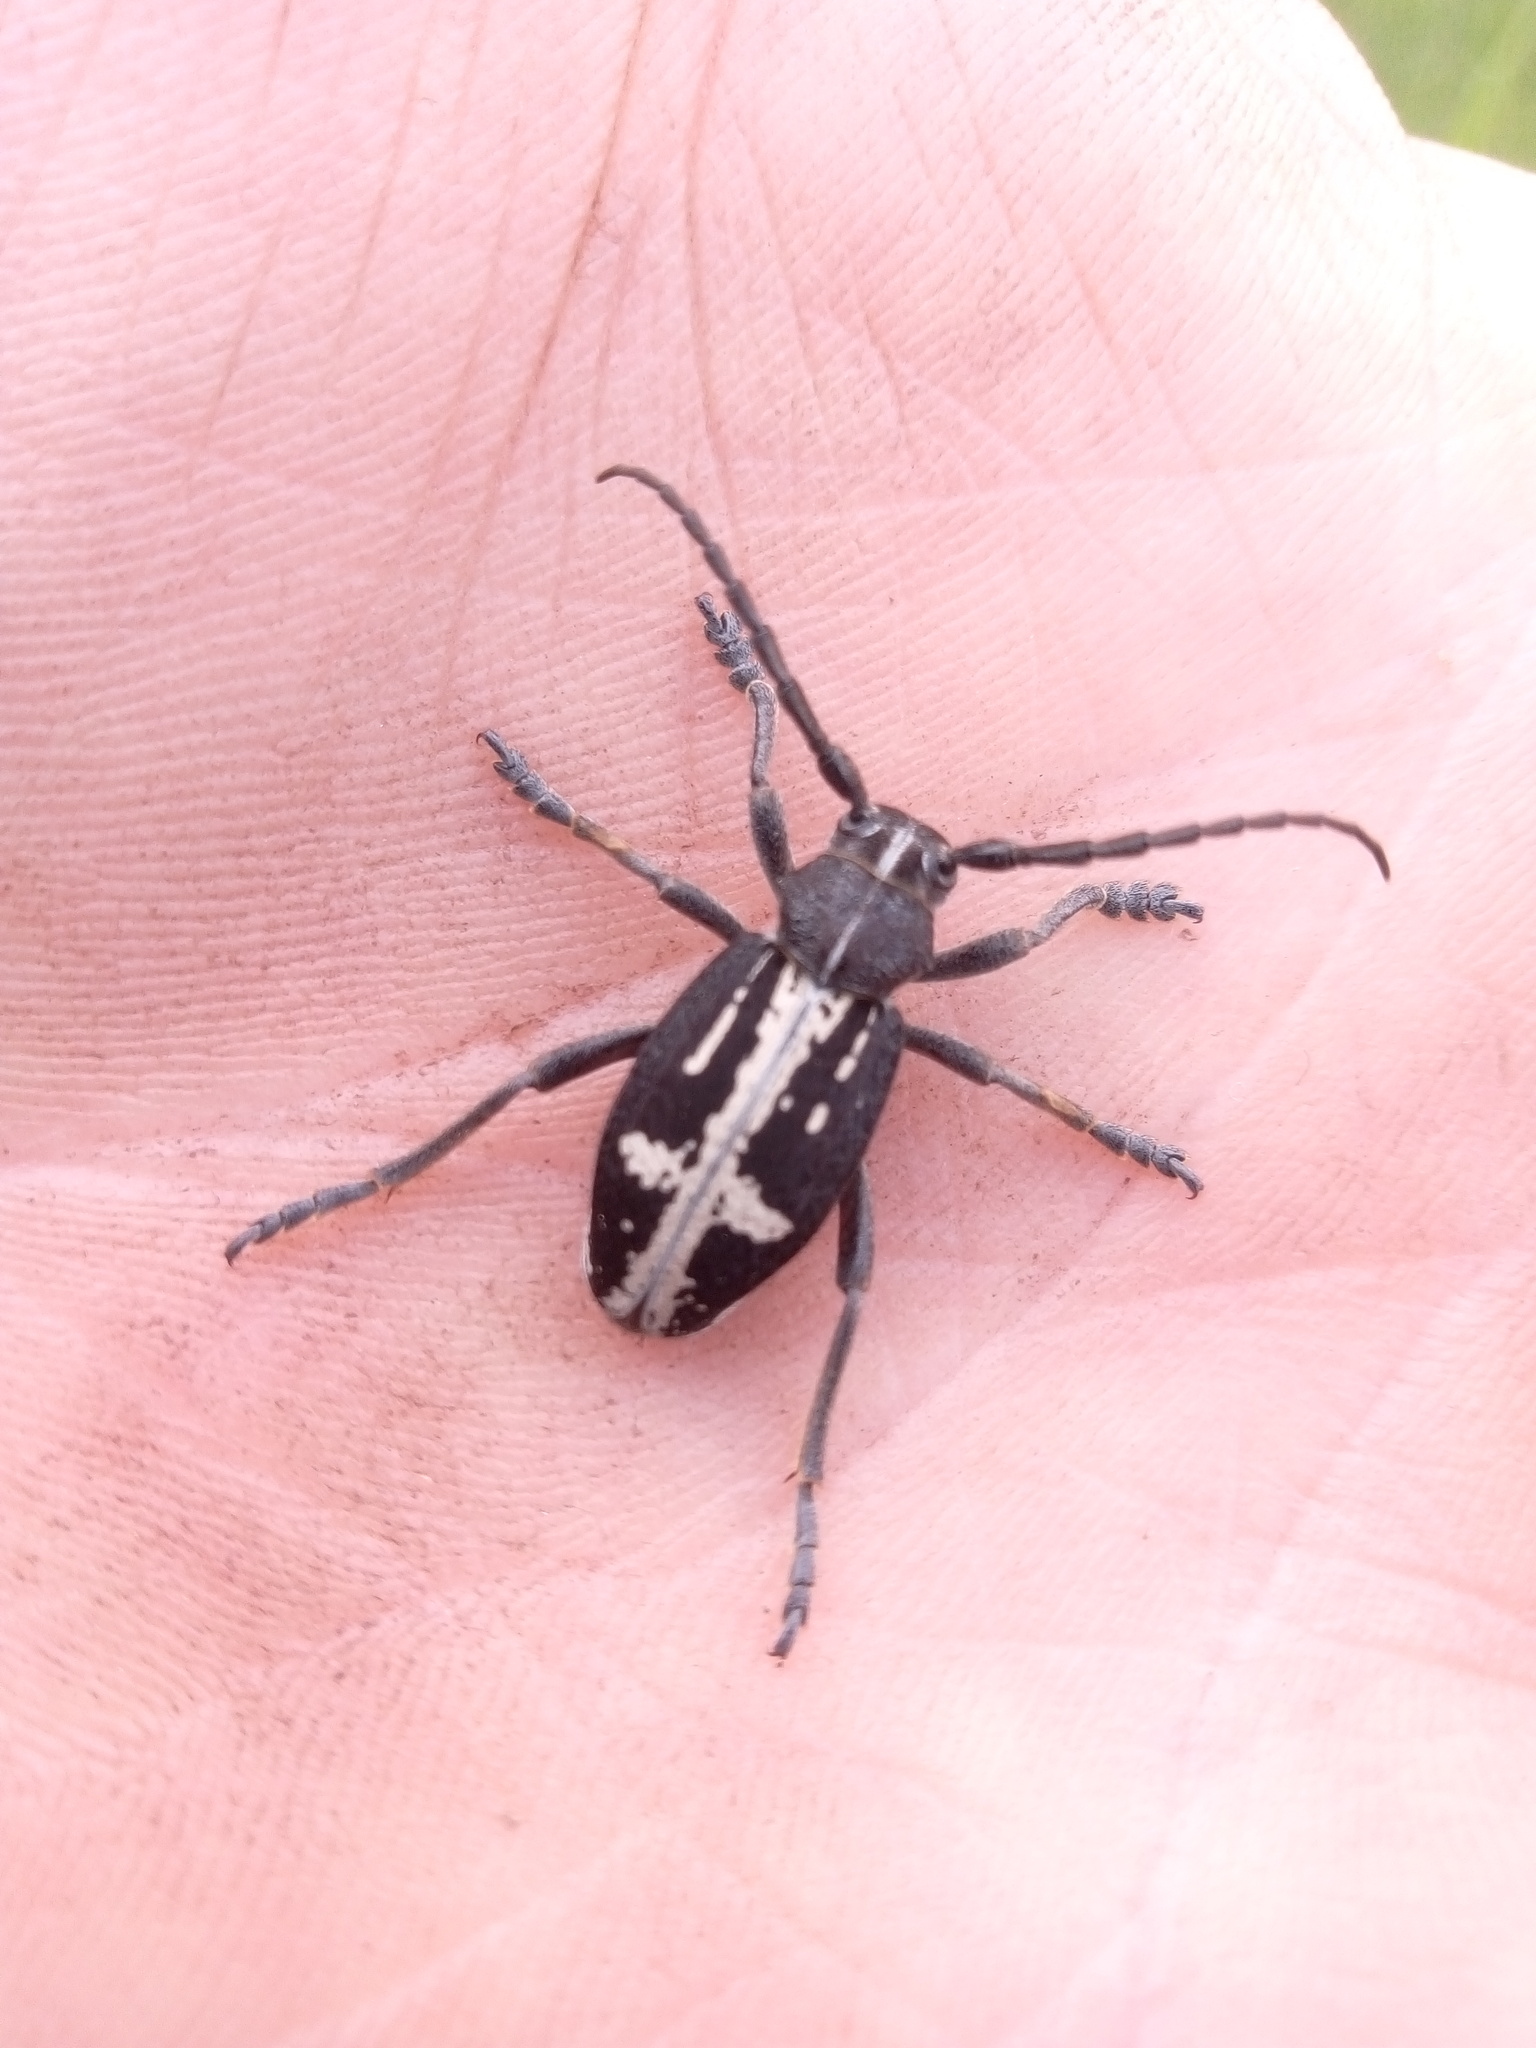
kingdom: Animalia
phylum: Arthropoda
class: Insecta
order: Coleoptera
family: Cerambycidae
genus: Dorcadion
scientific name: Dorcadion equestre
